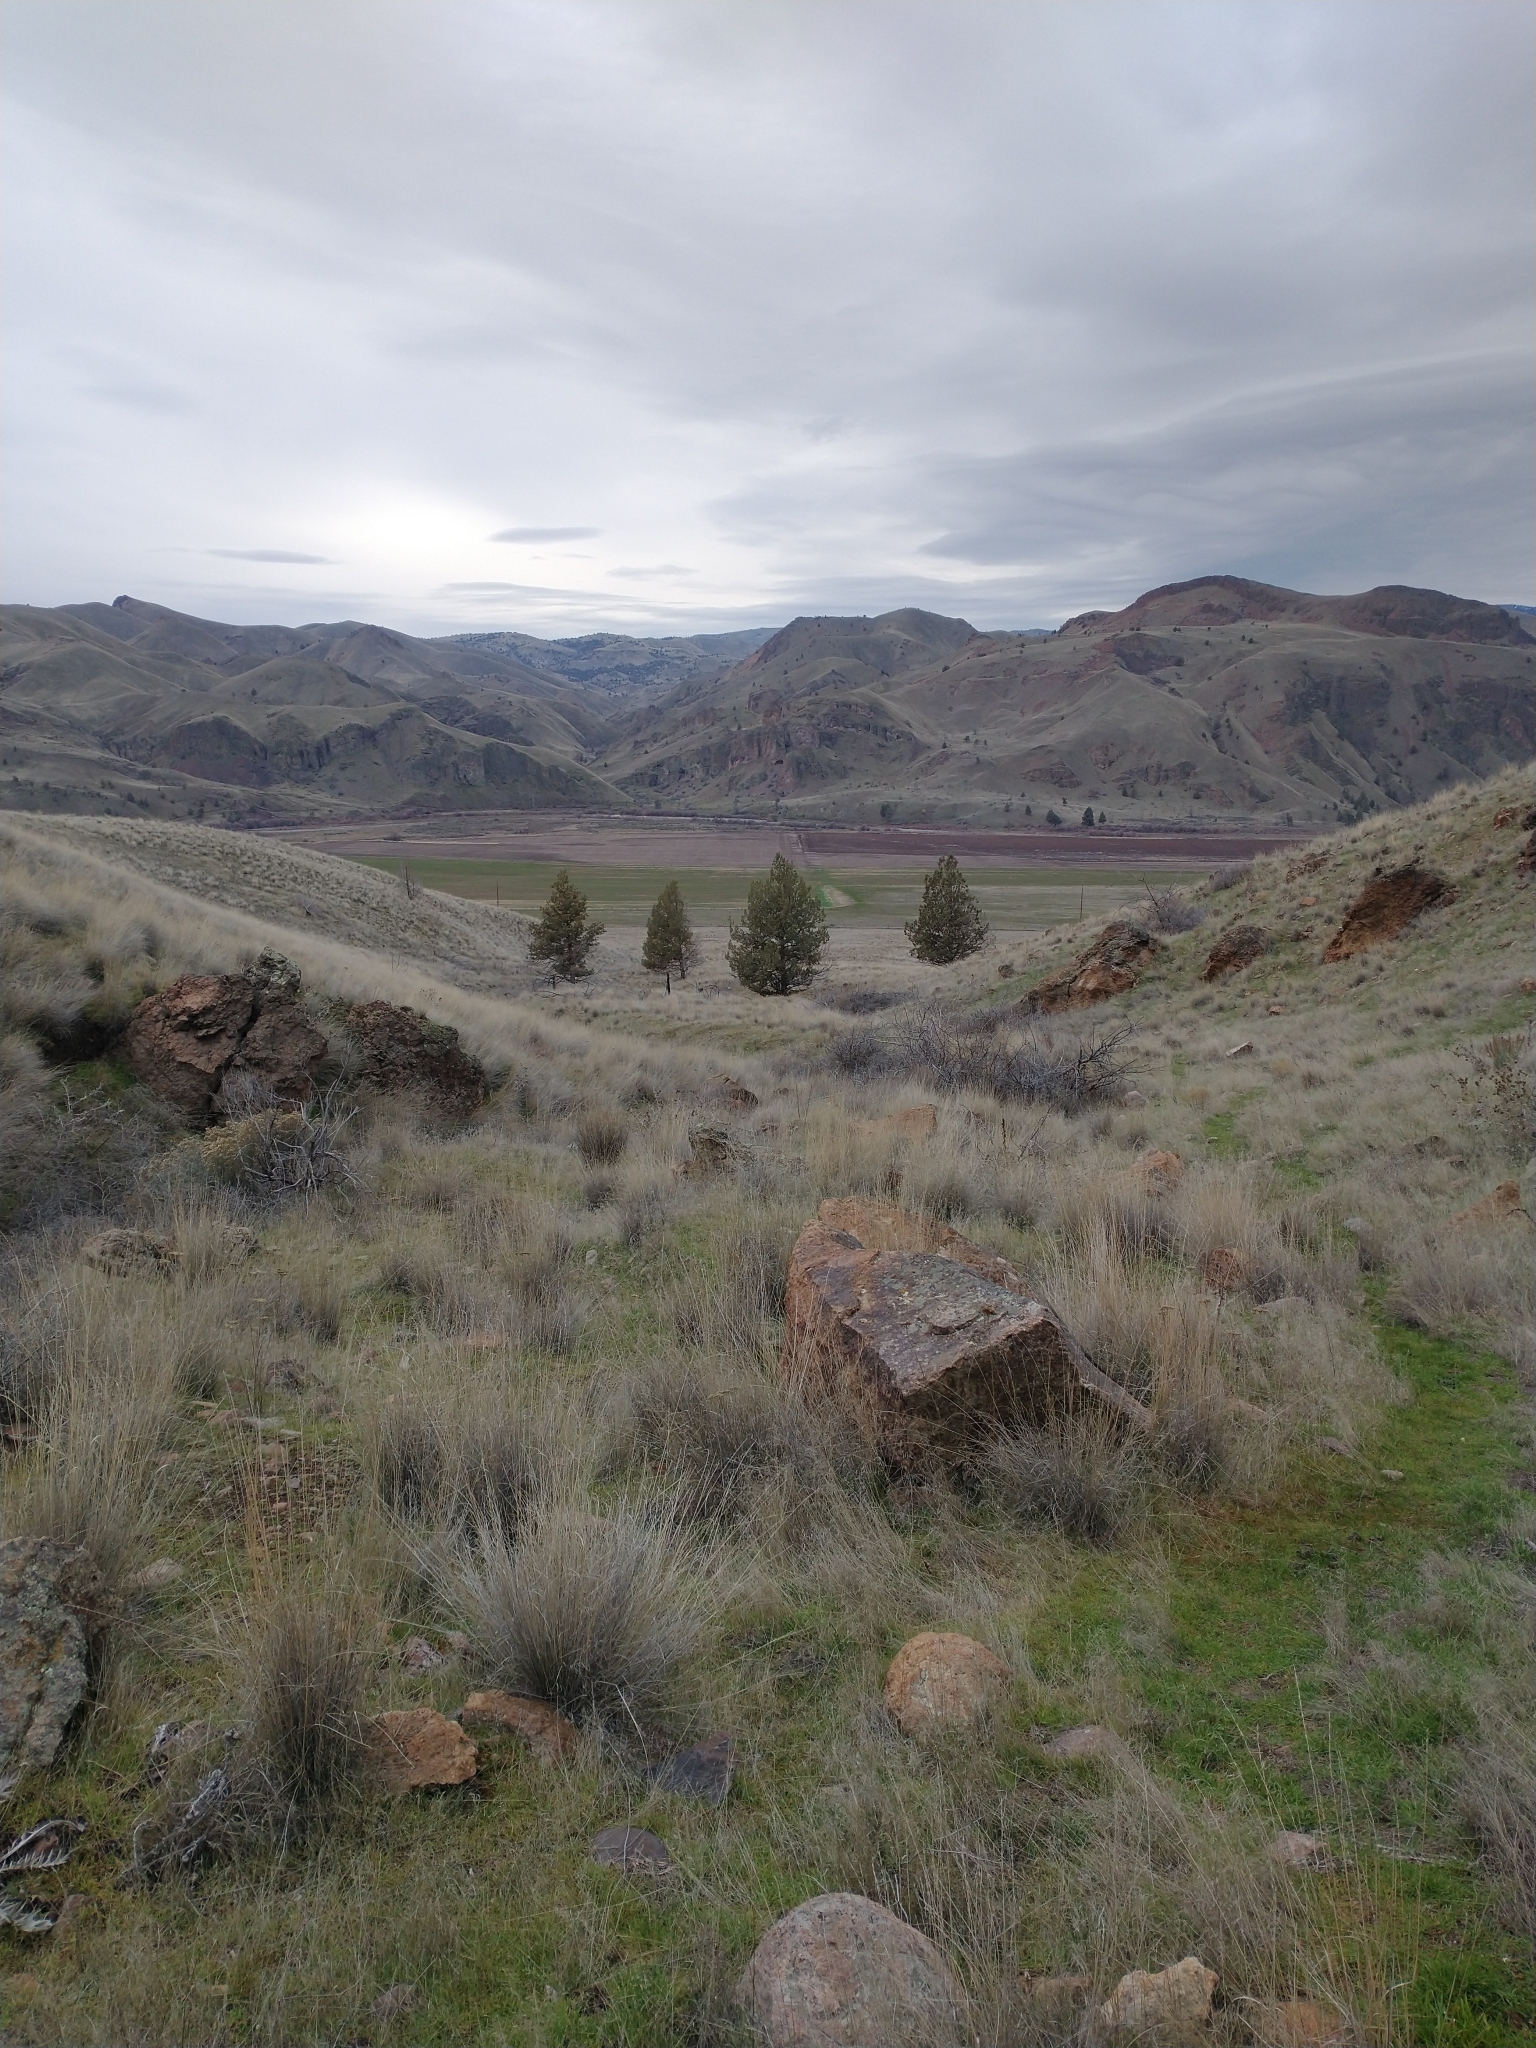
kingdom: Plantae
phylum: Tracheophyta
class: Pinopsida
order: Pinales
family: Cupressaceae
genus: Juniperus
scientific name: Juniperus occidentalis
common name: Western juniper
